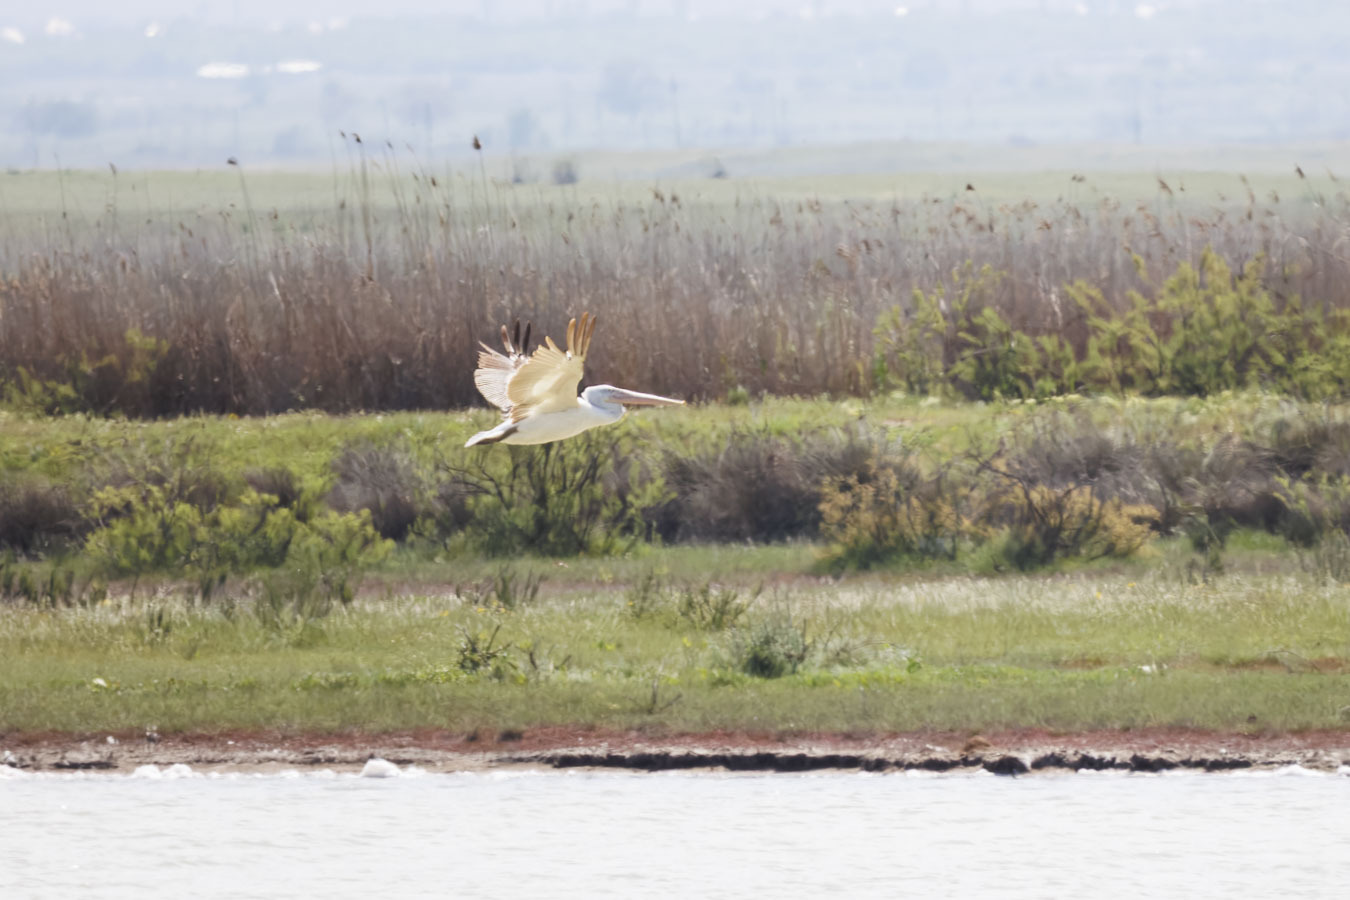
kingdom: Animalia
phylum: Chordata
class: Aves
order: Pelecaniformes
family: Pelecanidae
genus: Pelecanus
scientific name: Pelecanus crispus
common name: Dalmatian pelican
